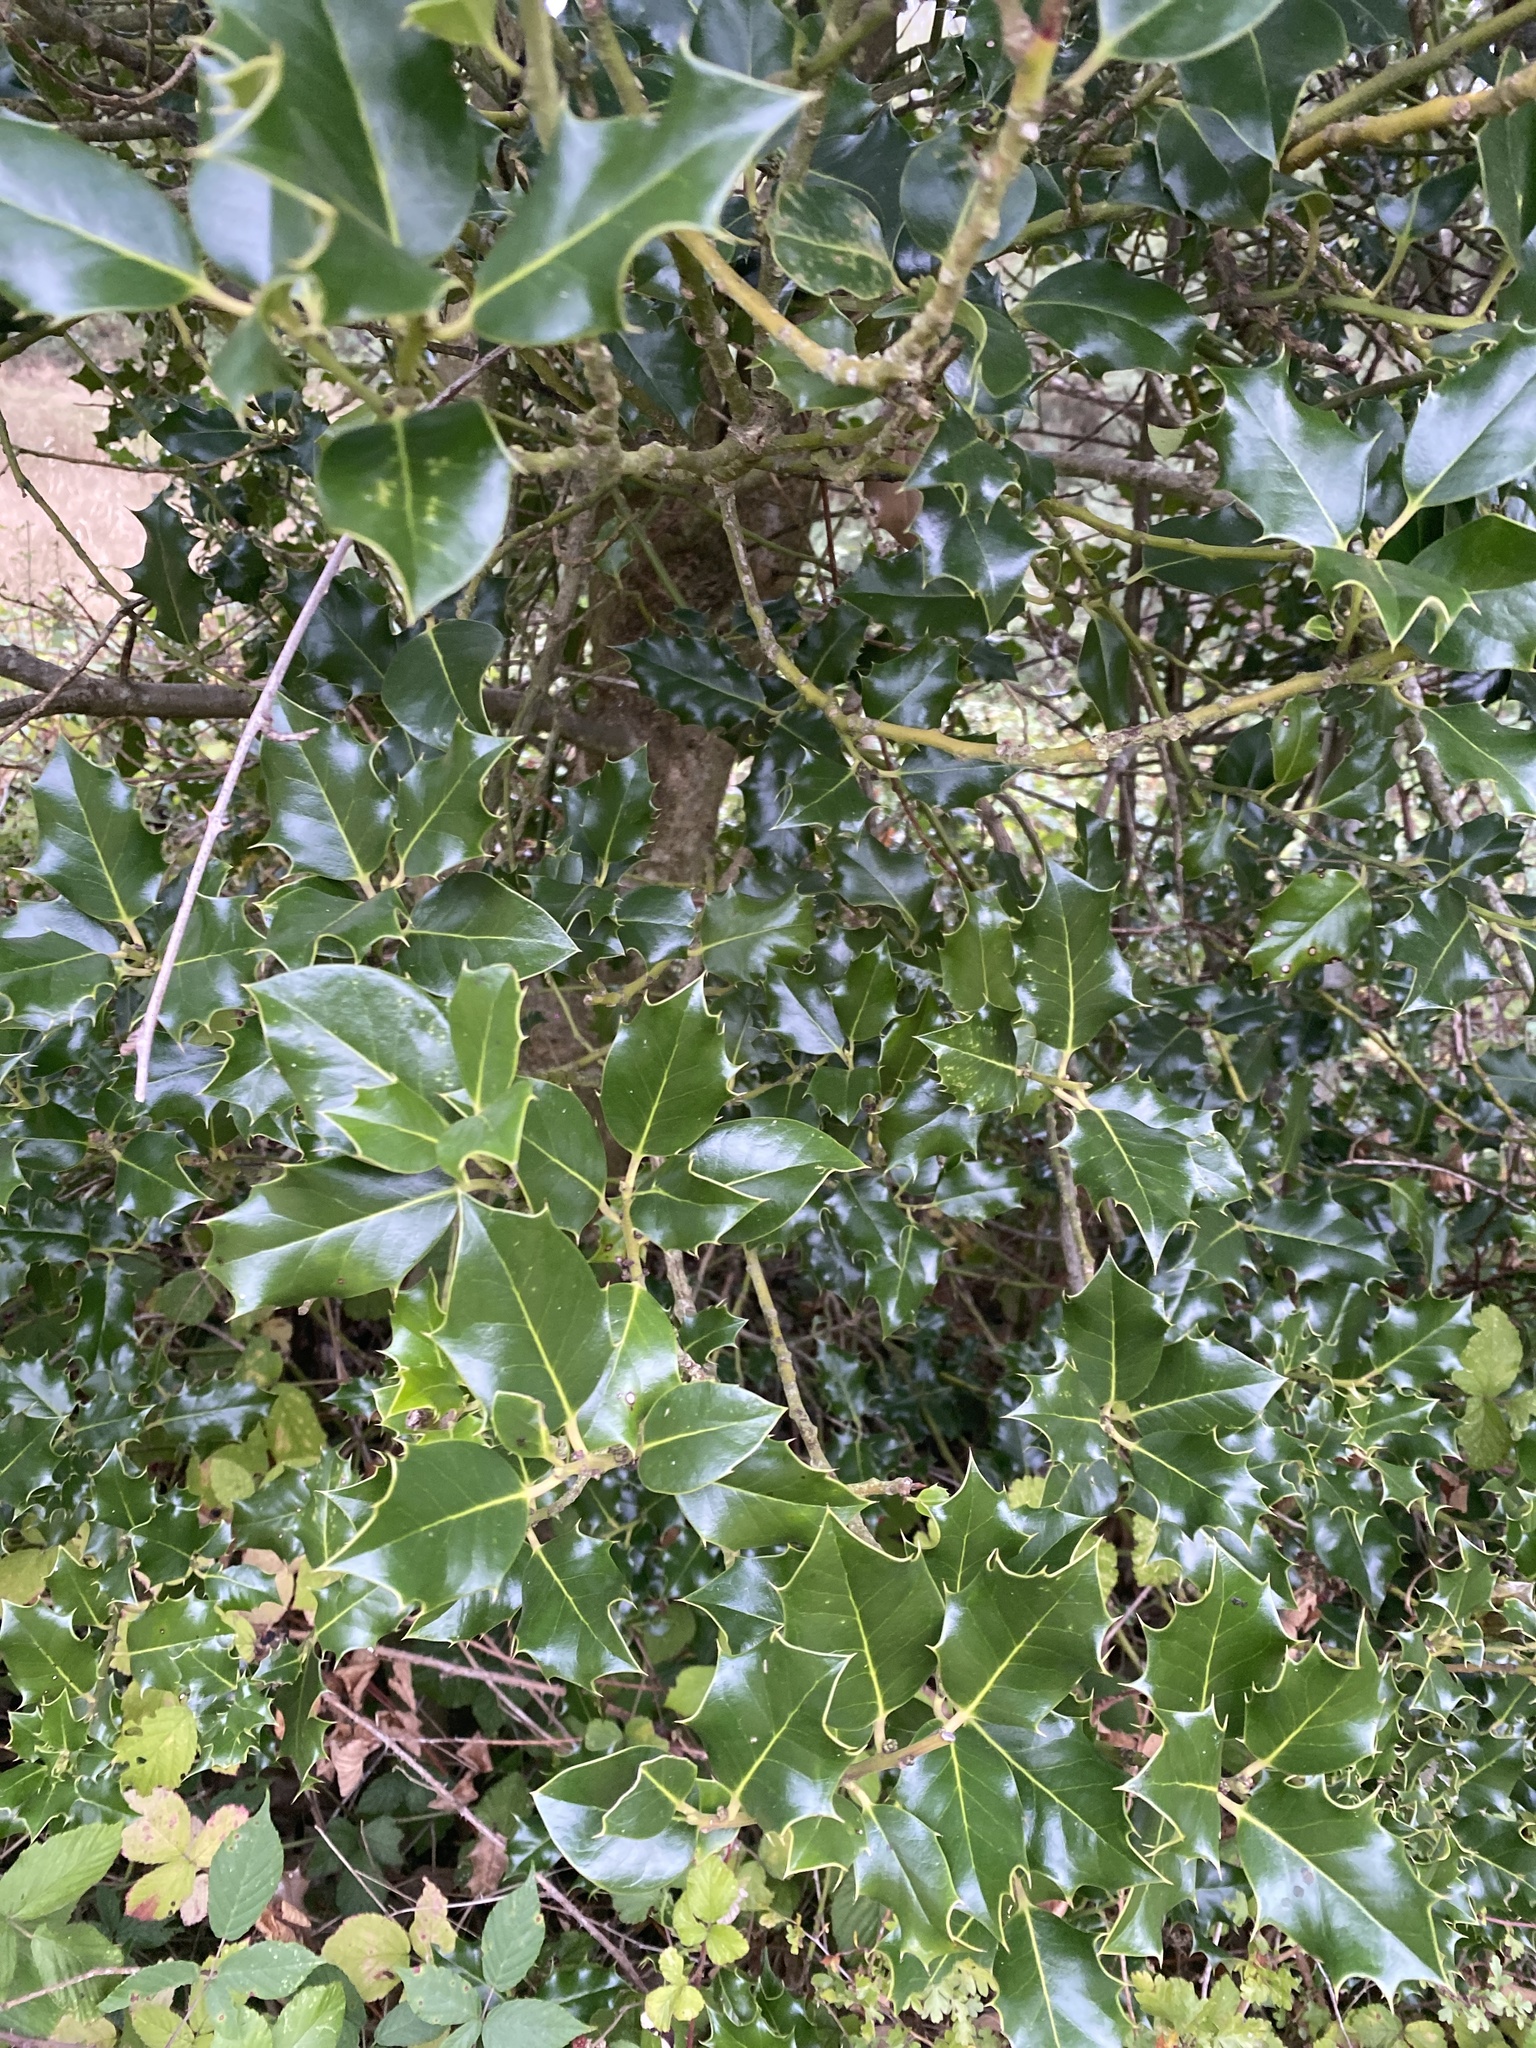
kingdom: Plantae
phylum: Tracheophyta
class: Magnoliopsida
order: Aquifoliales
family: Aquifoliaceae
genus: Ilex
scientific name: Ilex aquifolium
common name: English holly
